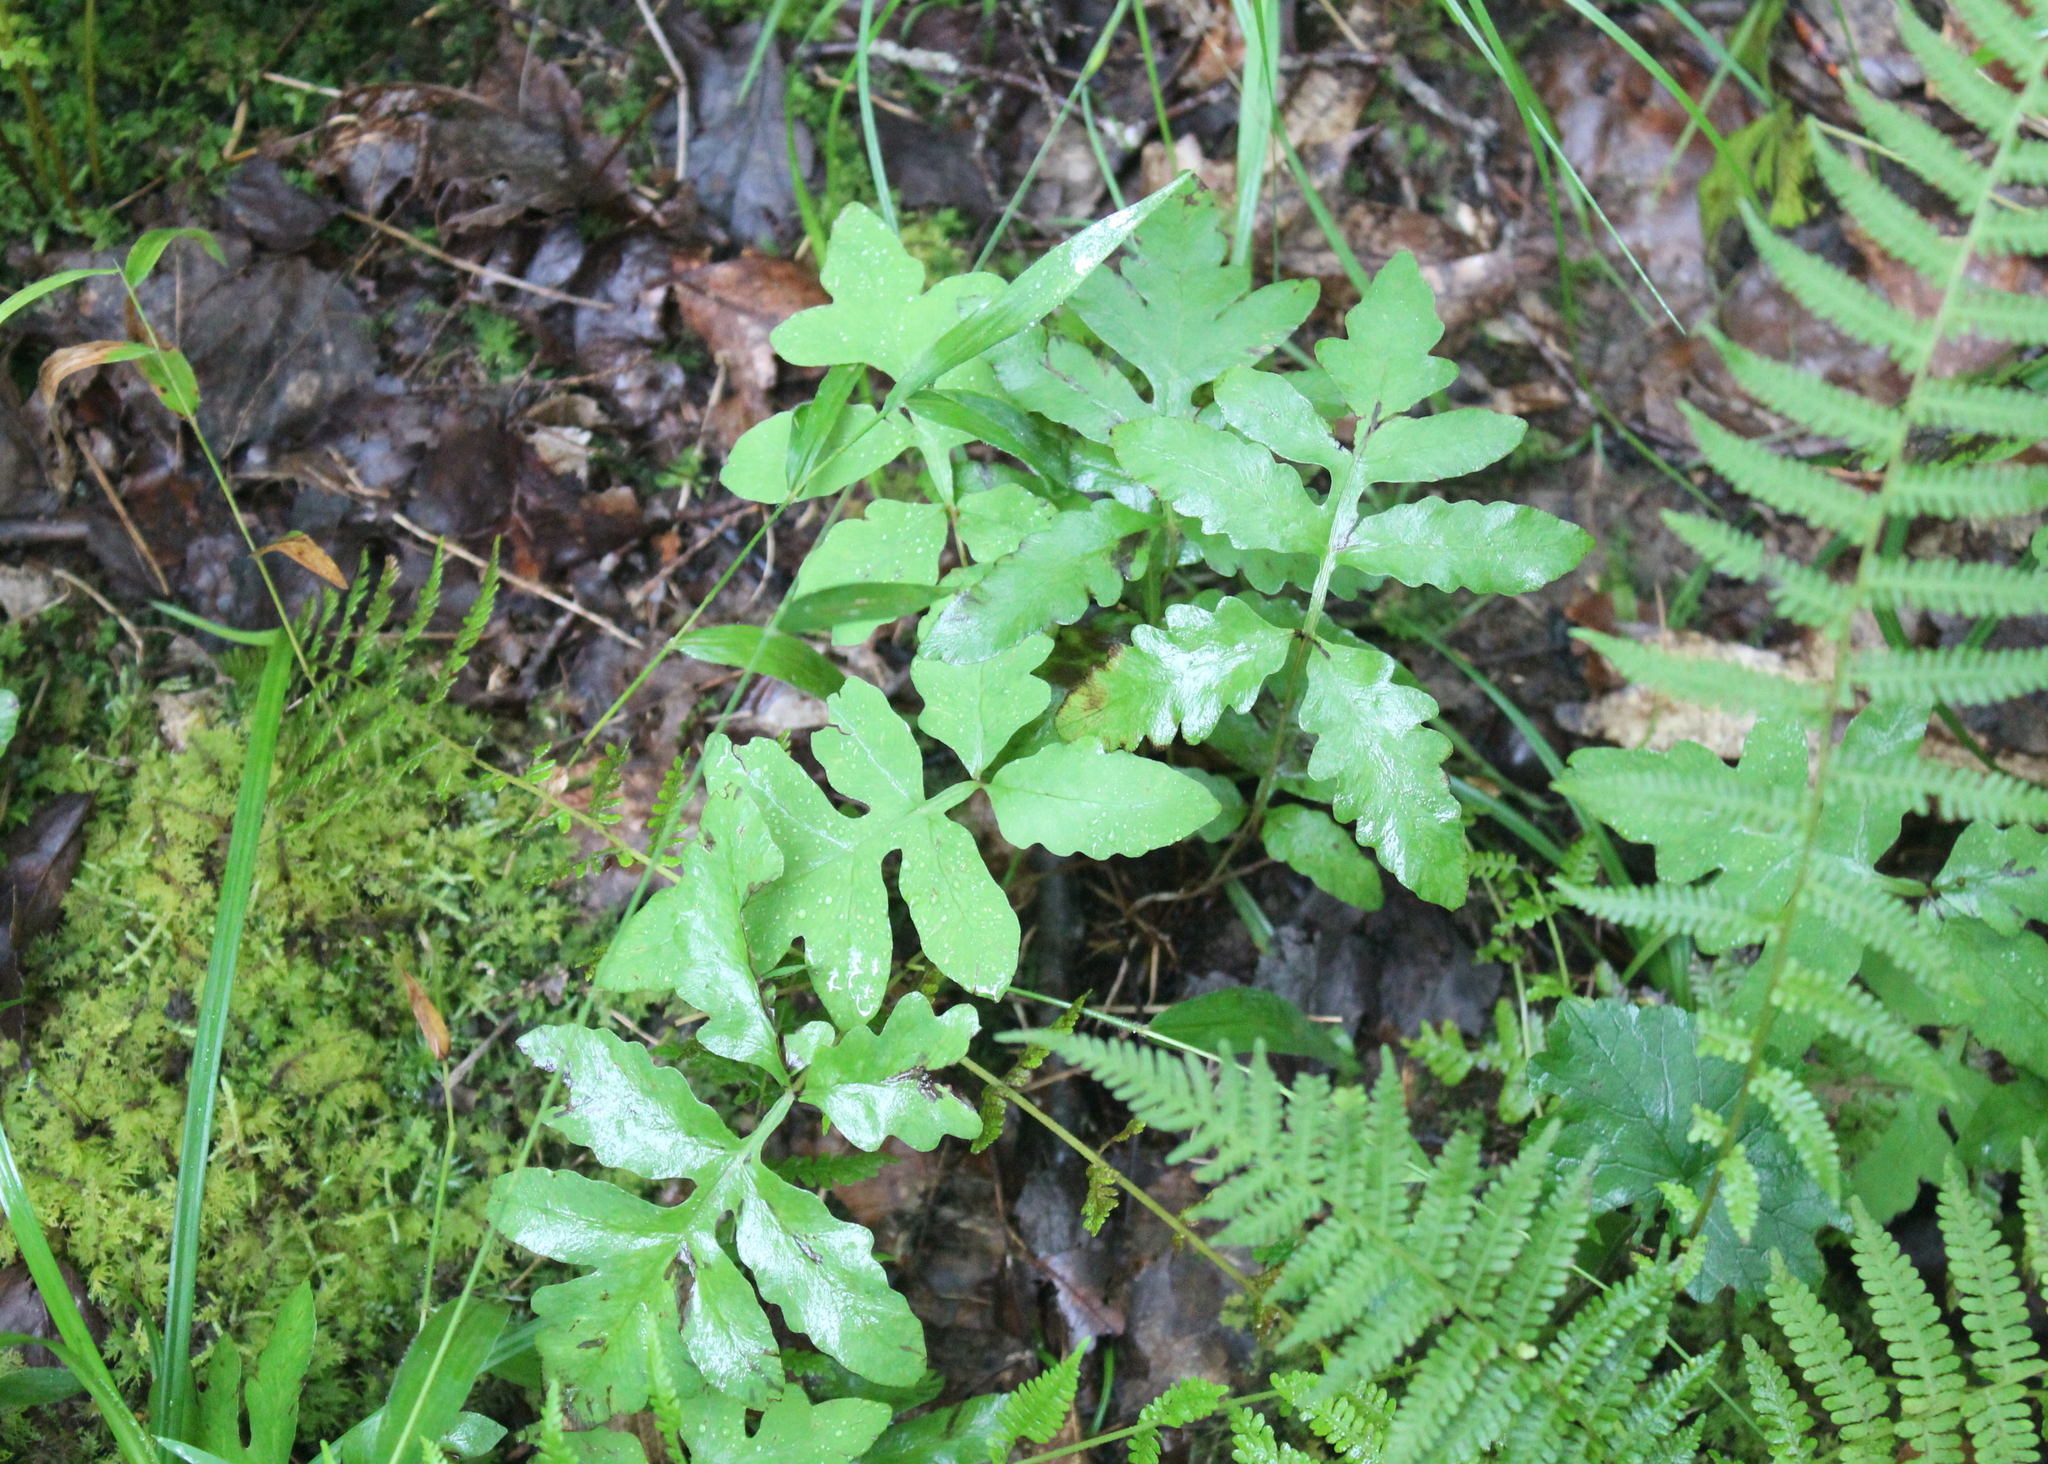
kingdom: Plantae
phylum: Tracheophyta
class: Polypodiopsida
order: Polypodiales
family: Onocleaceae
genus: Onoclea
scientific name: Onoclea sensibilis
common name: Sensitive fern
